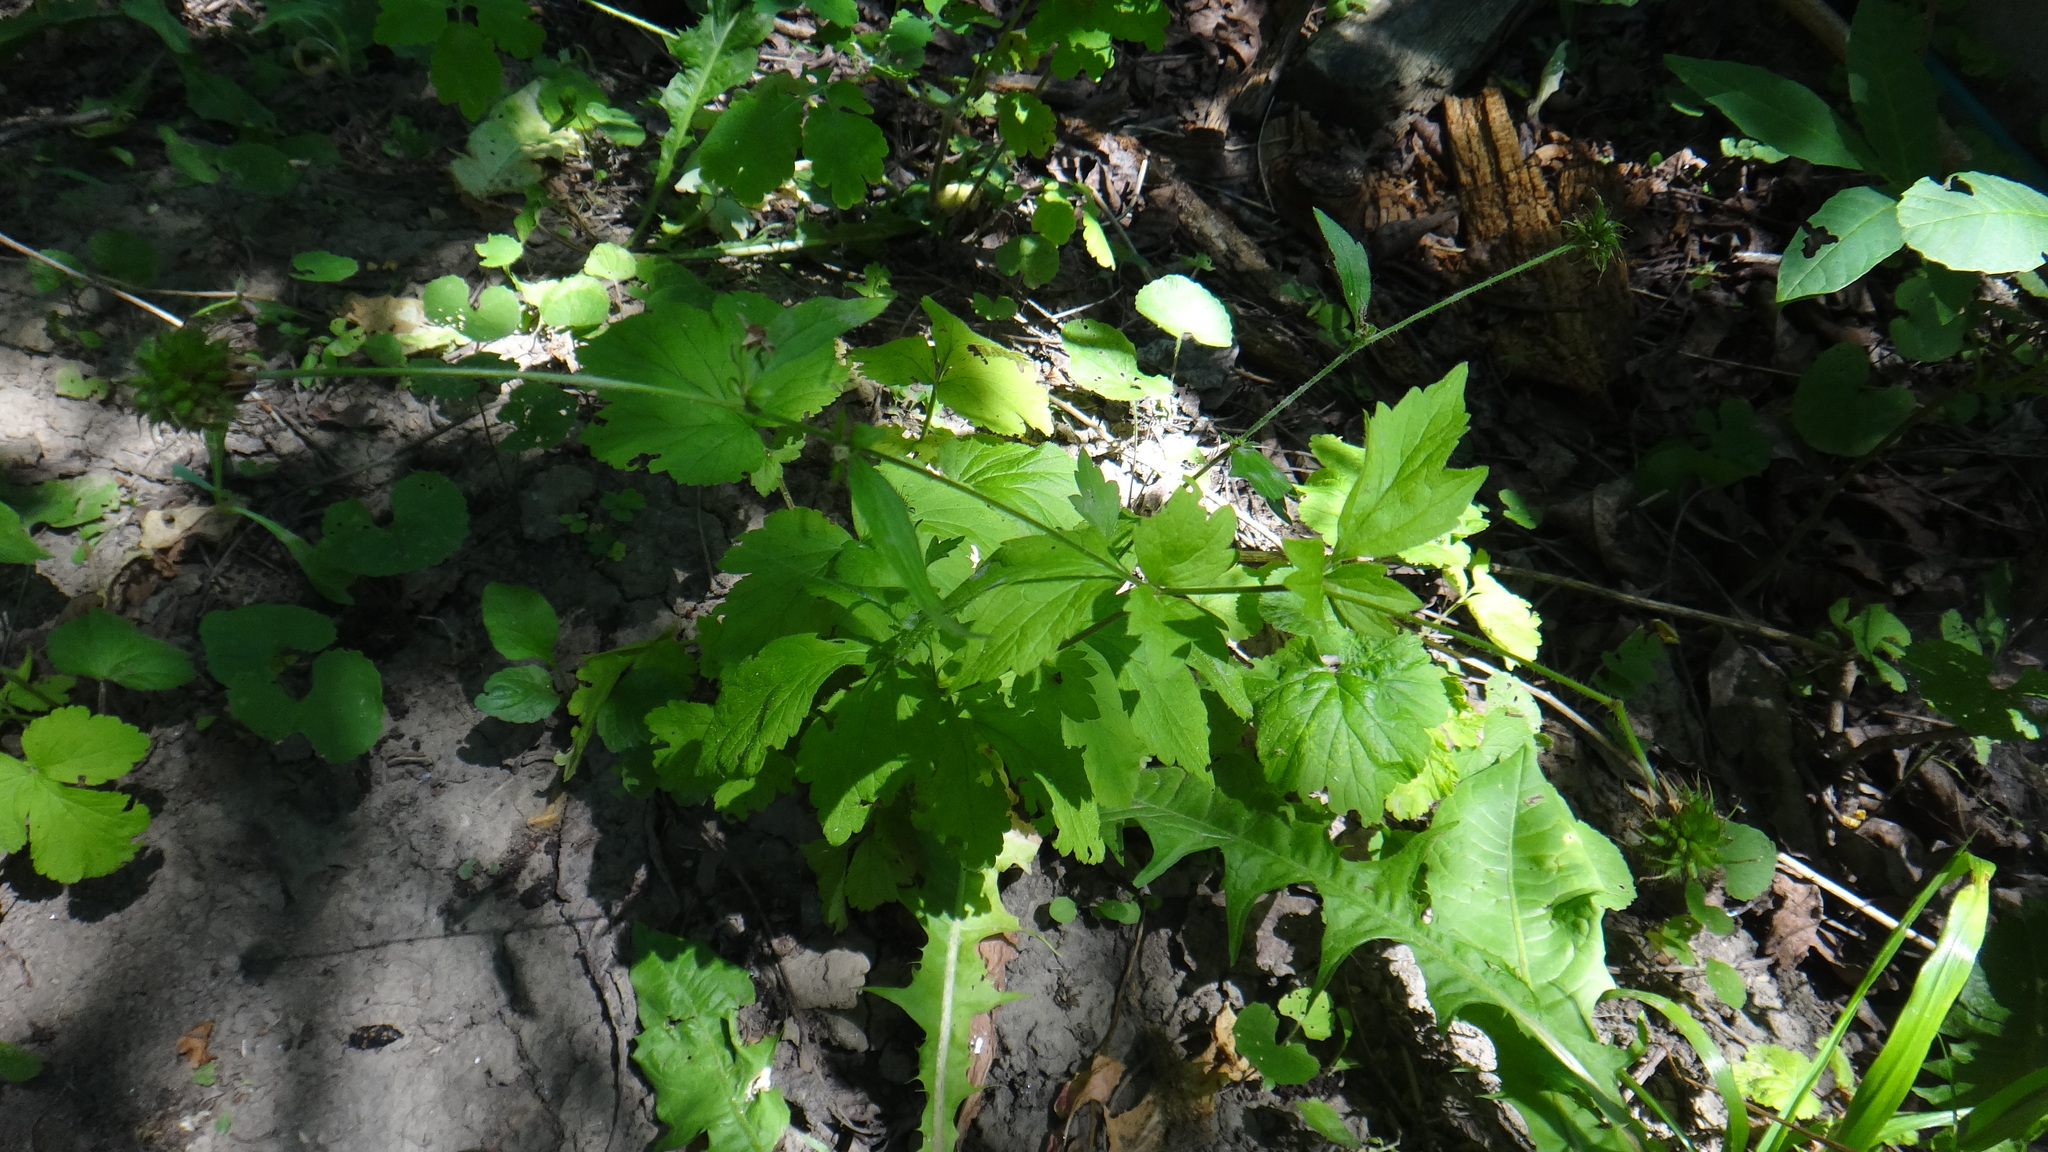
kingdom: Plantae
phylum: Tracheophyta
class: Magnoliopsida
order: Rosales
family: Rosaceae
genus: Geum
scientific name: Geum urbanum
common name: Wood avens
